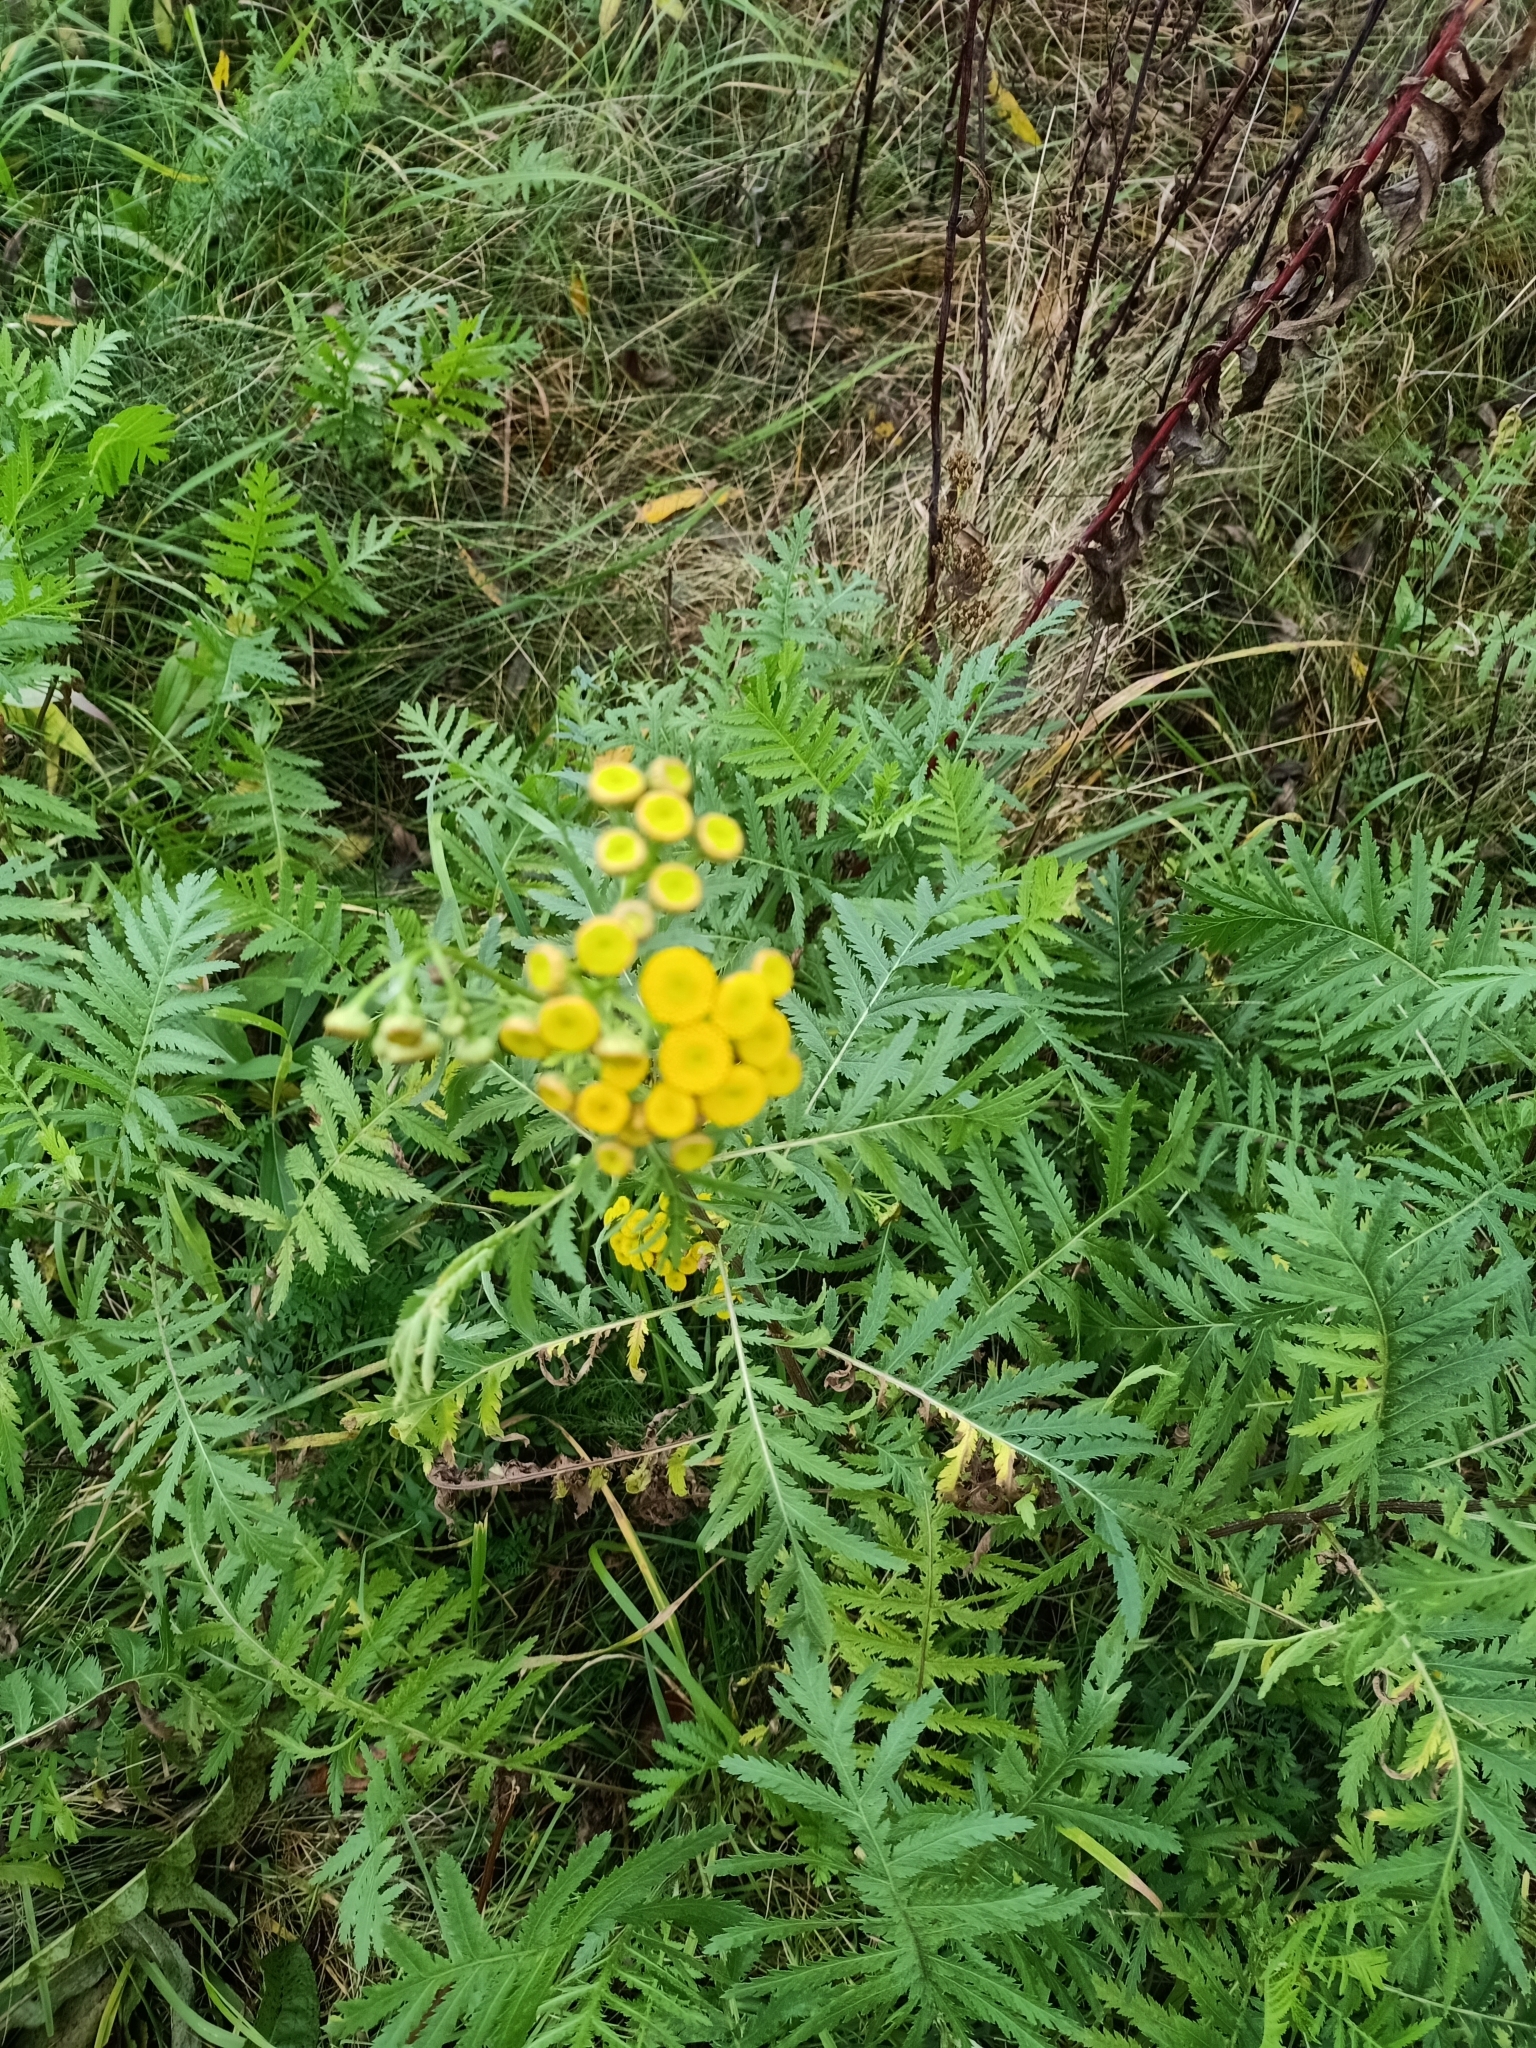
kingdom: Plantae
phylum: Tracheophyta
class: Magnoliopsida
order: Asterales
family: Asteraceae
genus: Tanacetum
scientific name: Tanacetum vulgare
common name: Common tansy
